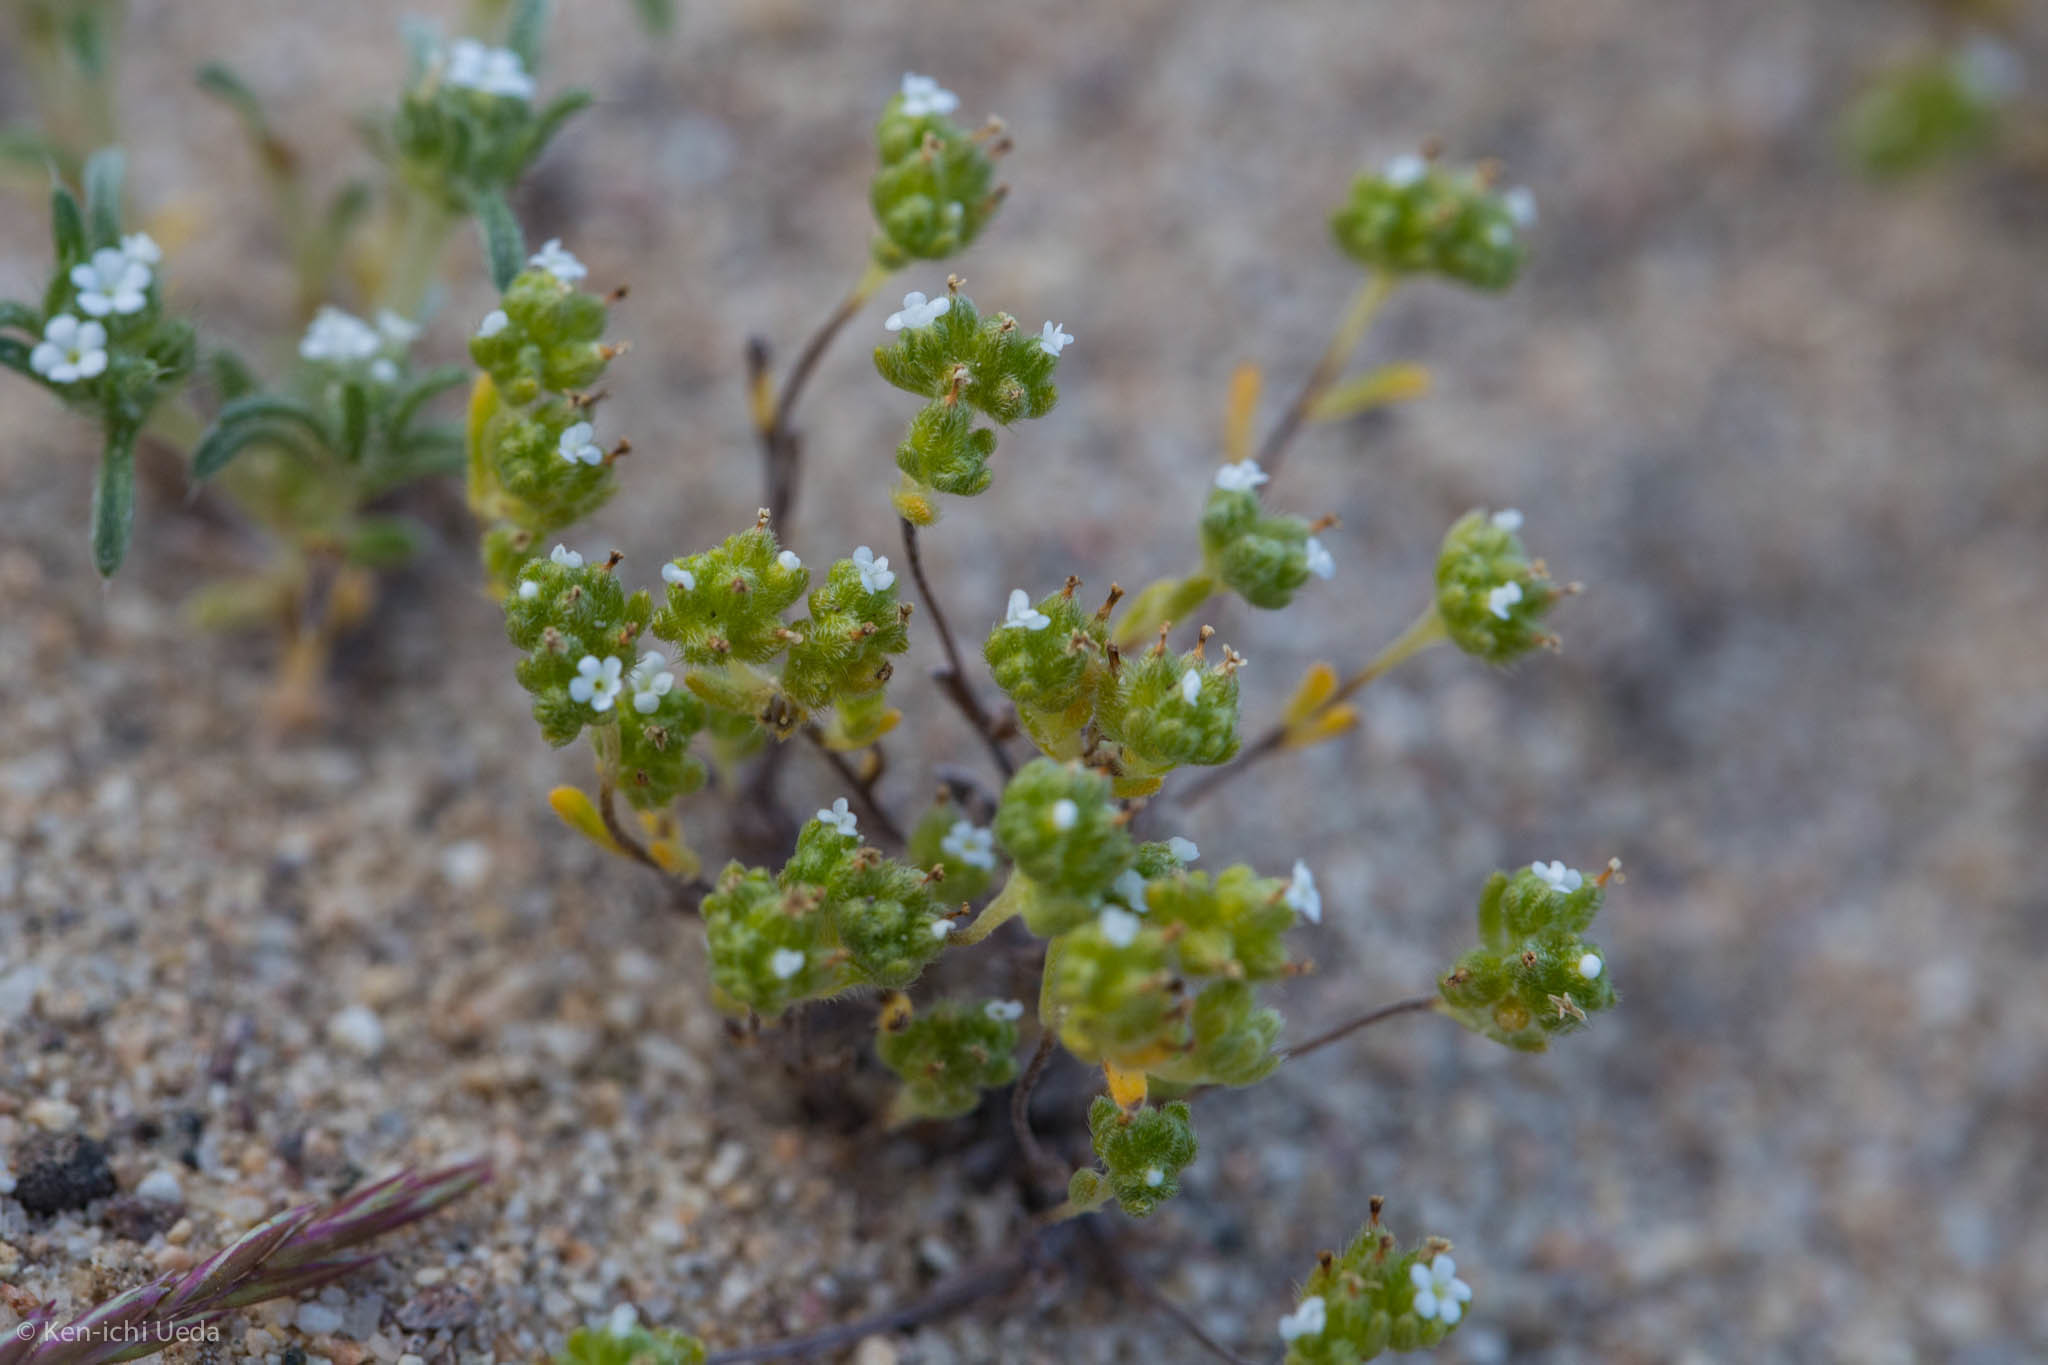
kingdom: Plantae
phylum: Tracheophyta
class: Magnoliopsida
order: Boraginales
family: Boraginaceae
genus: Eremocarya
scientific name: Eremocarya micrantha
